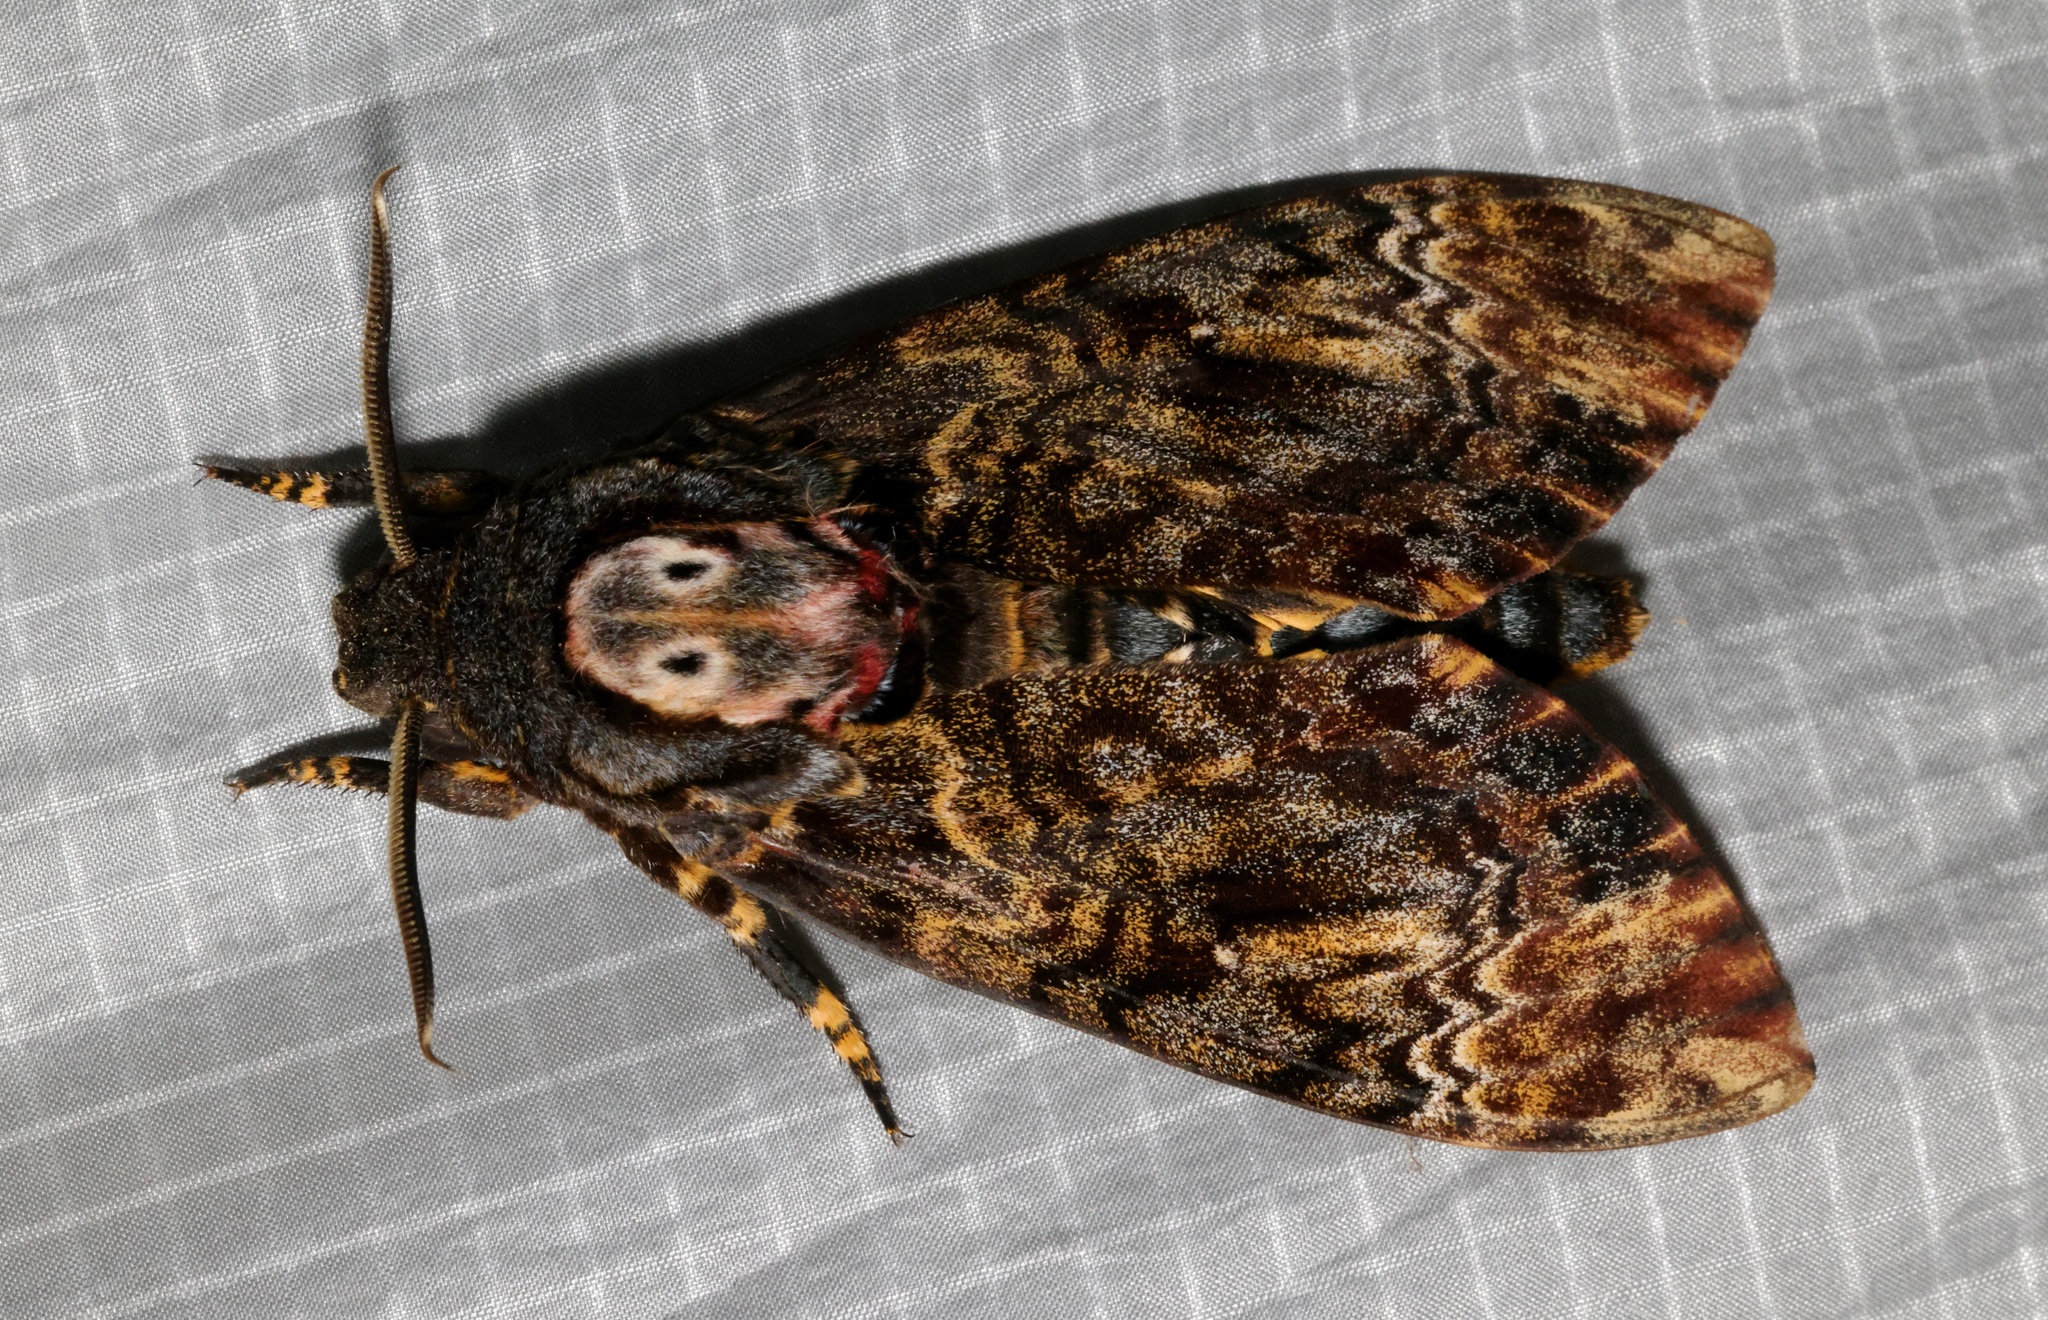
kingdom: Animalia
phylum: Arthropoda
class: Insecta
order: Lepidoptera
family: Sphingidae
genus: Acherontia
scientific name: Acherontia lachesis
